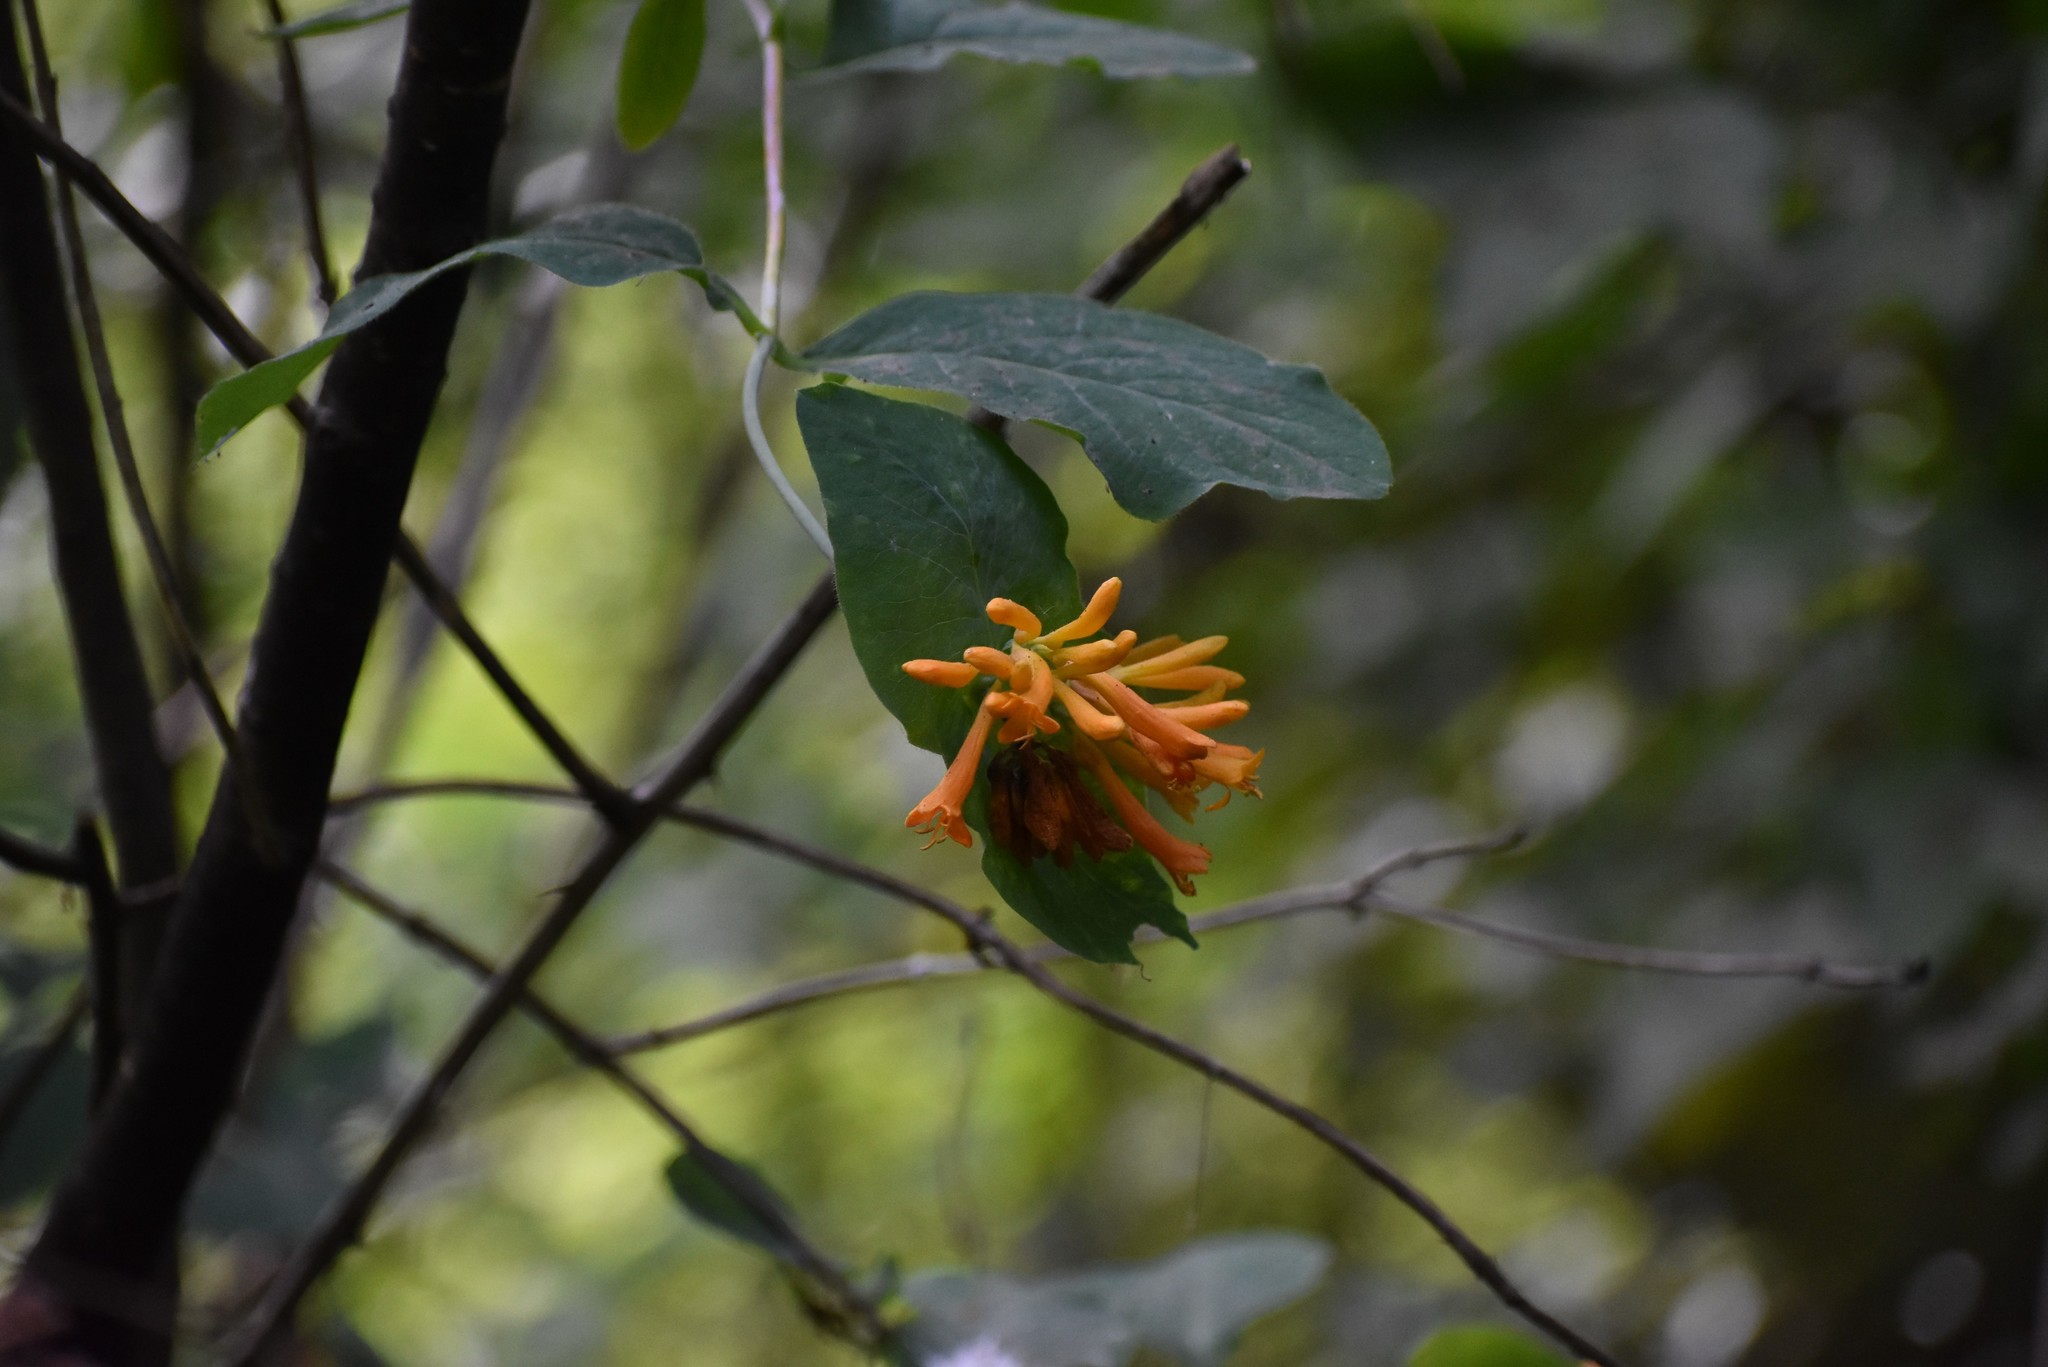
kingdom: Plantae
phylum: Tracheophyta
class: Magnoliopsida
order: Dipsacales
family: Caprifoliaceae
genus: Lonicera
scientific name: Lonicera ciliosa
